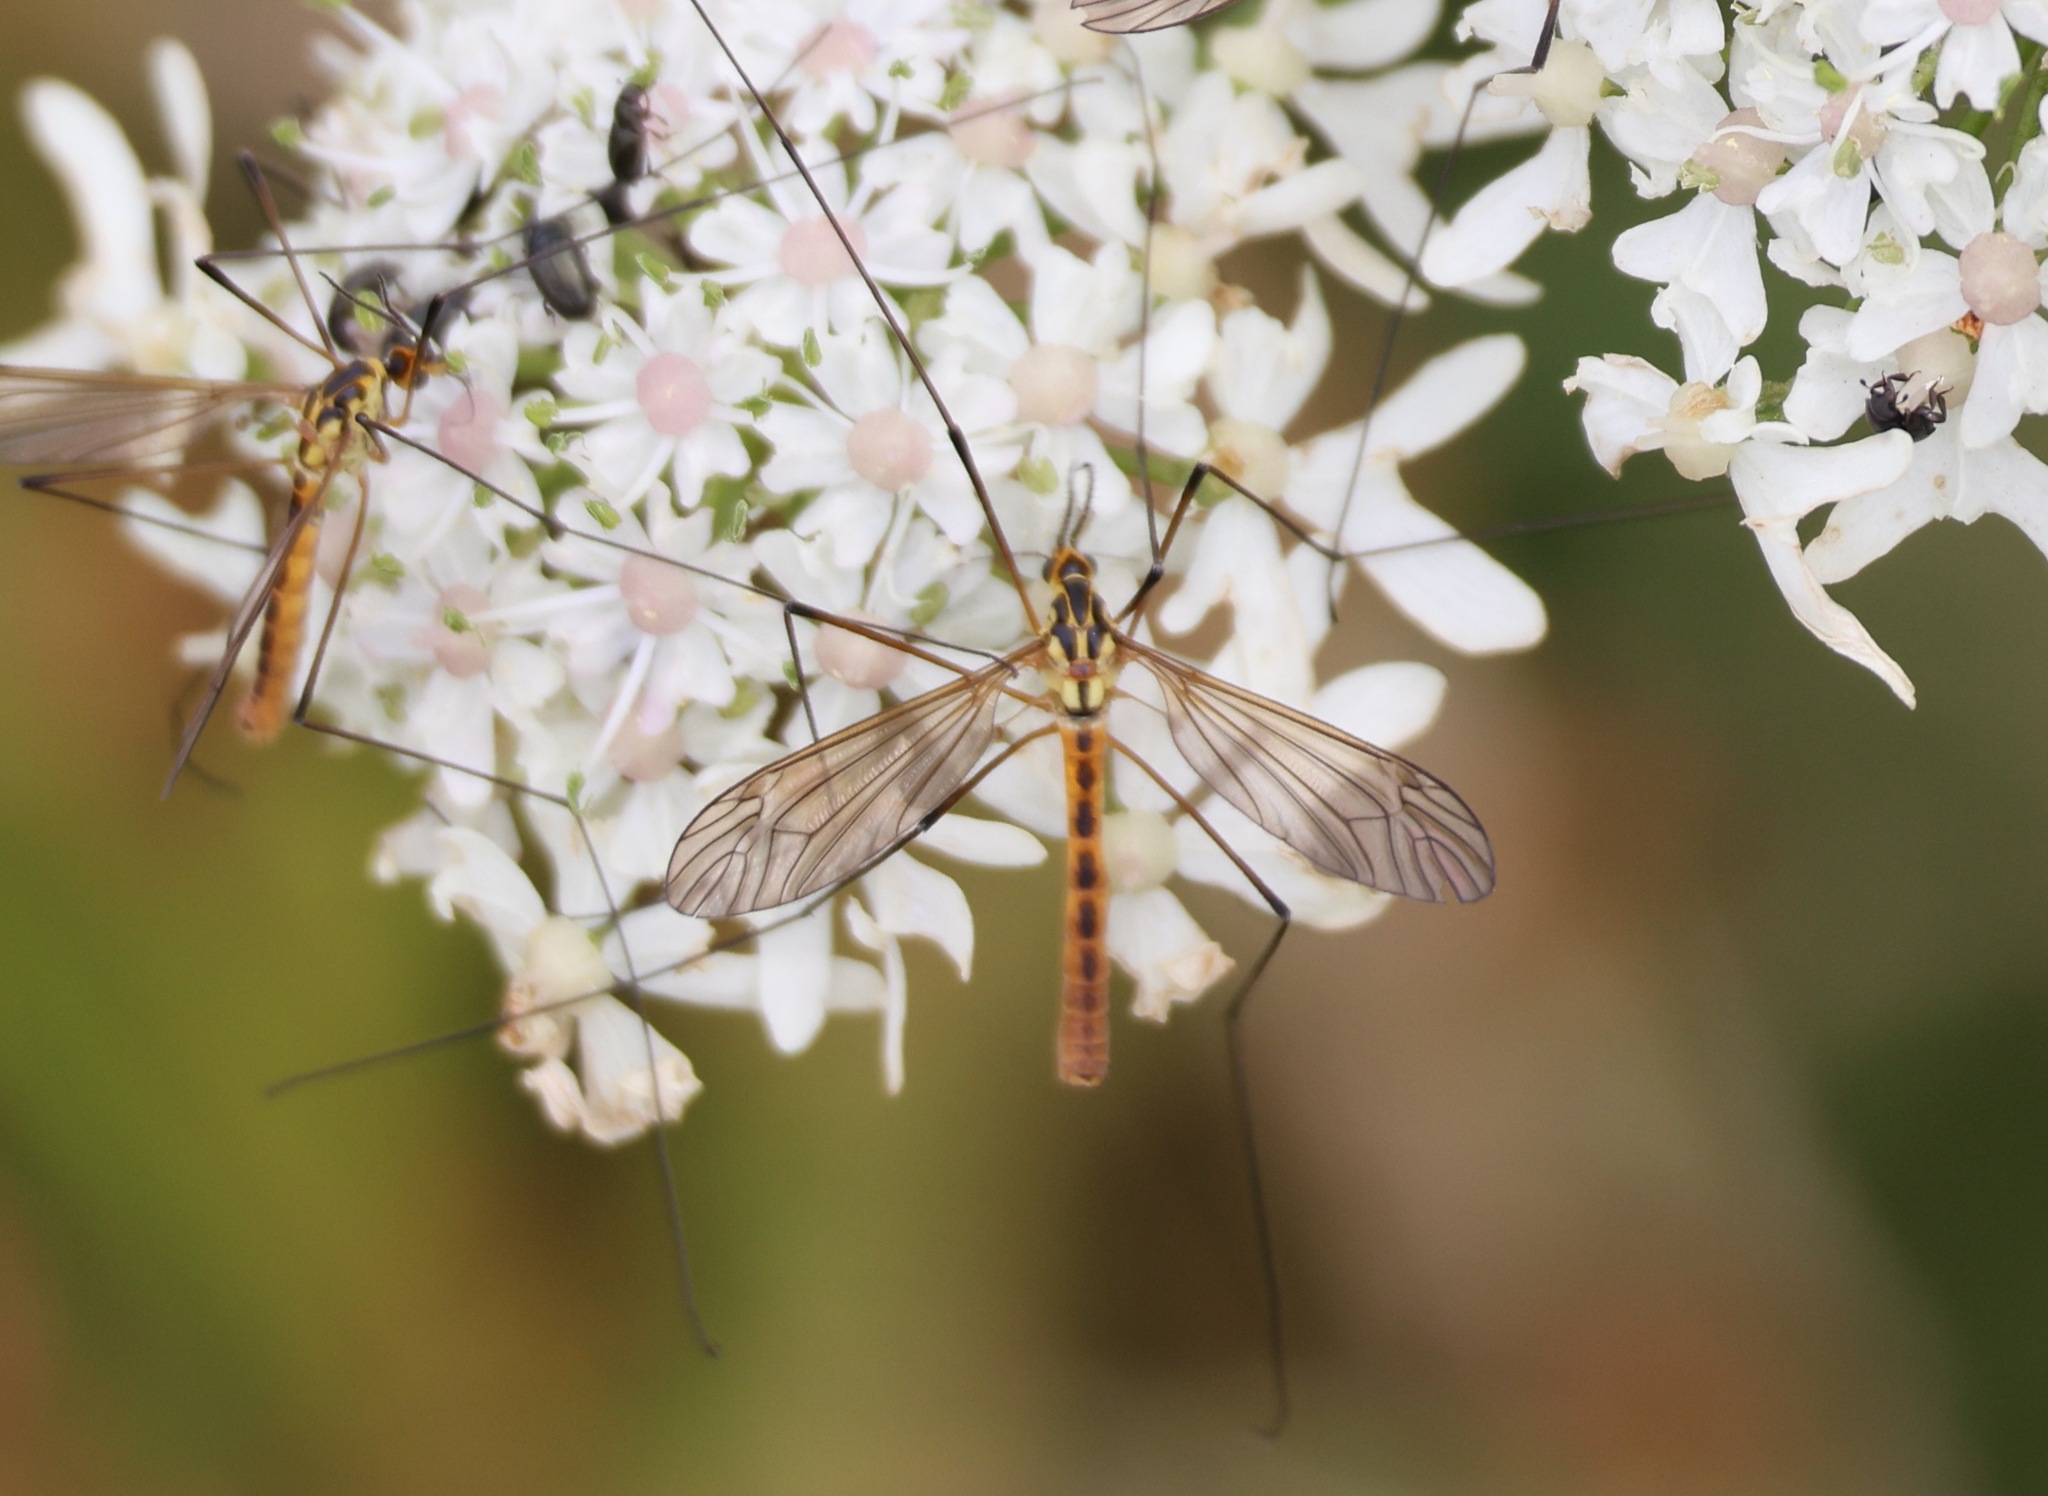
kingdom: Animalia
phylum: Arthropoda
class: Insecta
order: Diptera
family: Tipulidae
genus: Nephrotoma
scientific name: Nephrotoma flavescens
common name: Tiger cranefly
